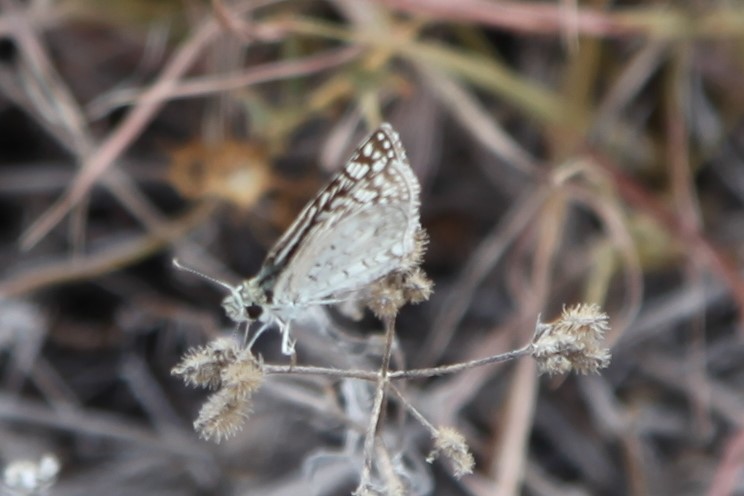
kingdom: Animalia
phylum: Arthropoda
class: Insecta
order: Lepidoptera
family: Hesperiidae
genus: Burnsius
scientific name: Burnsius philetas
